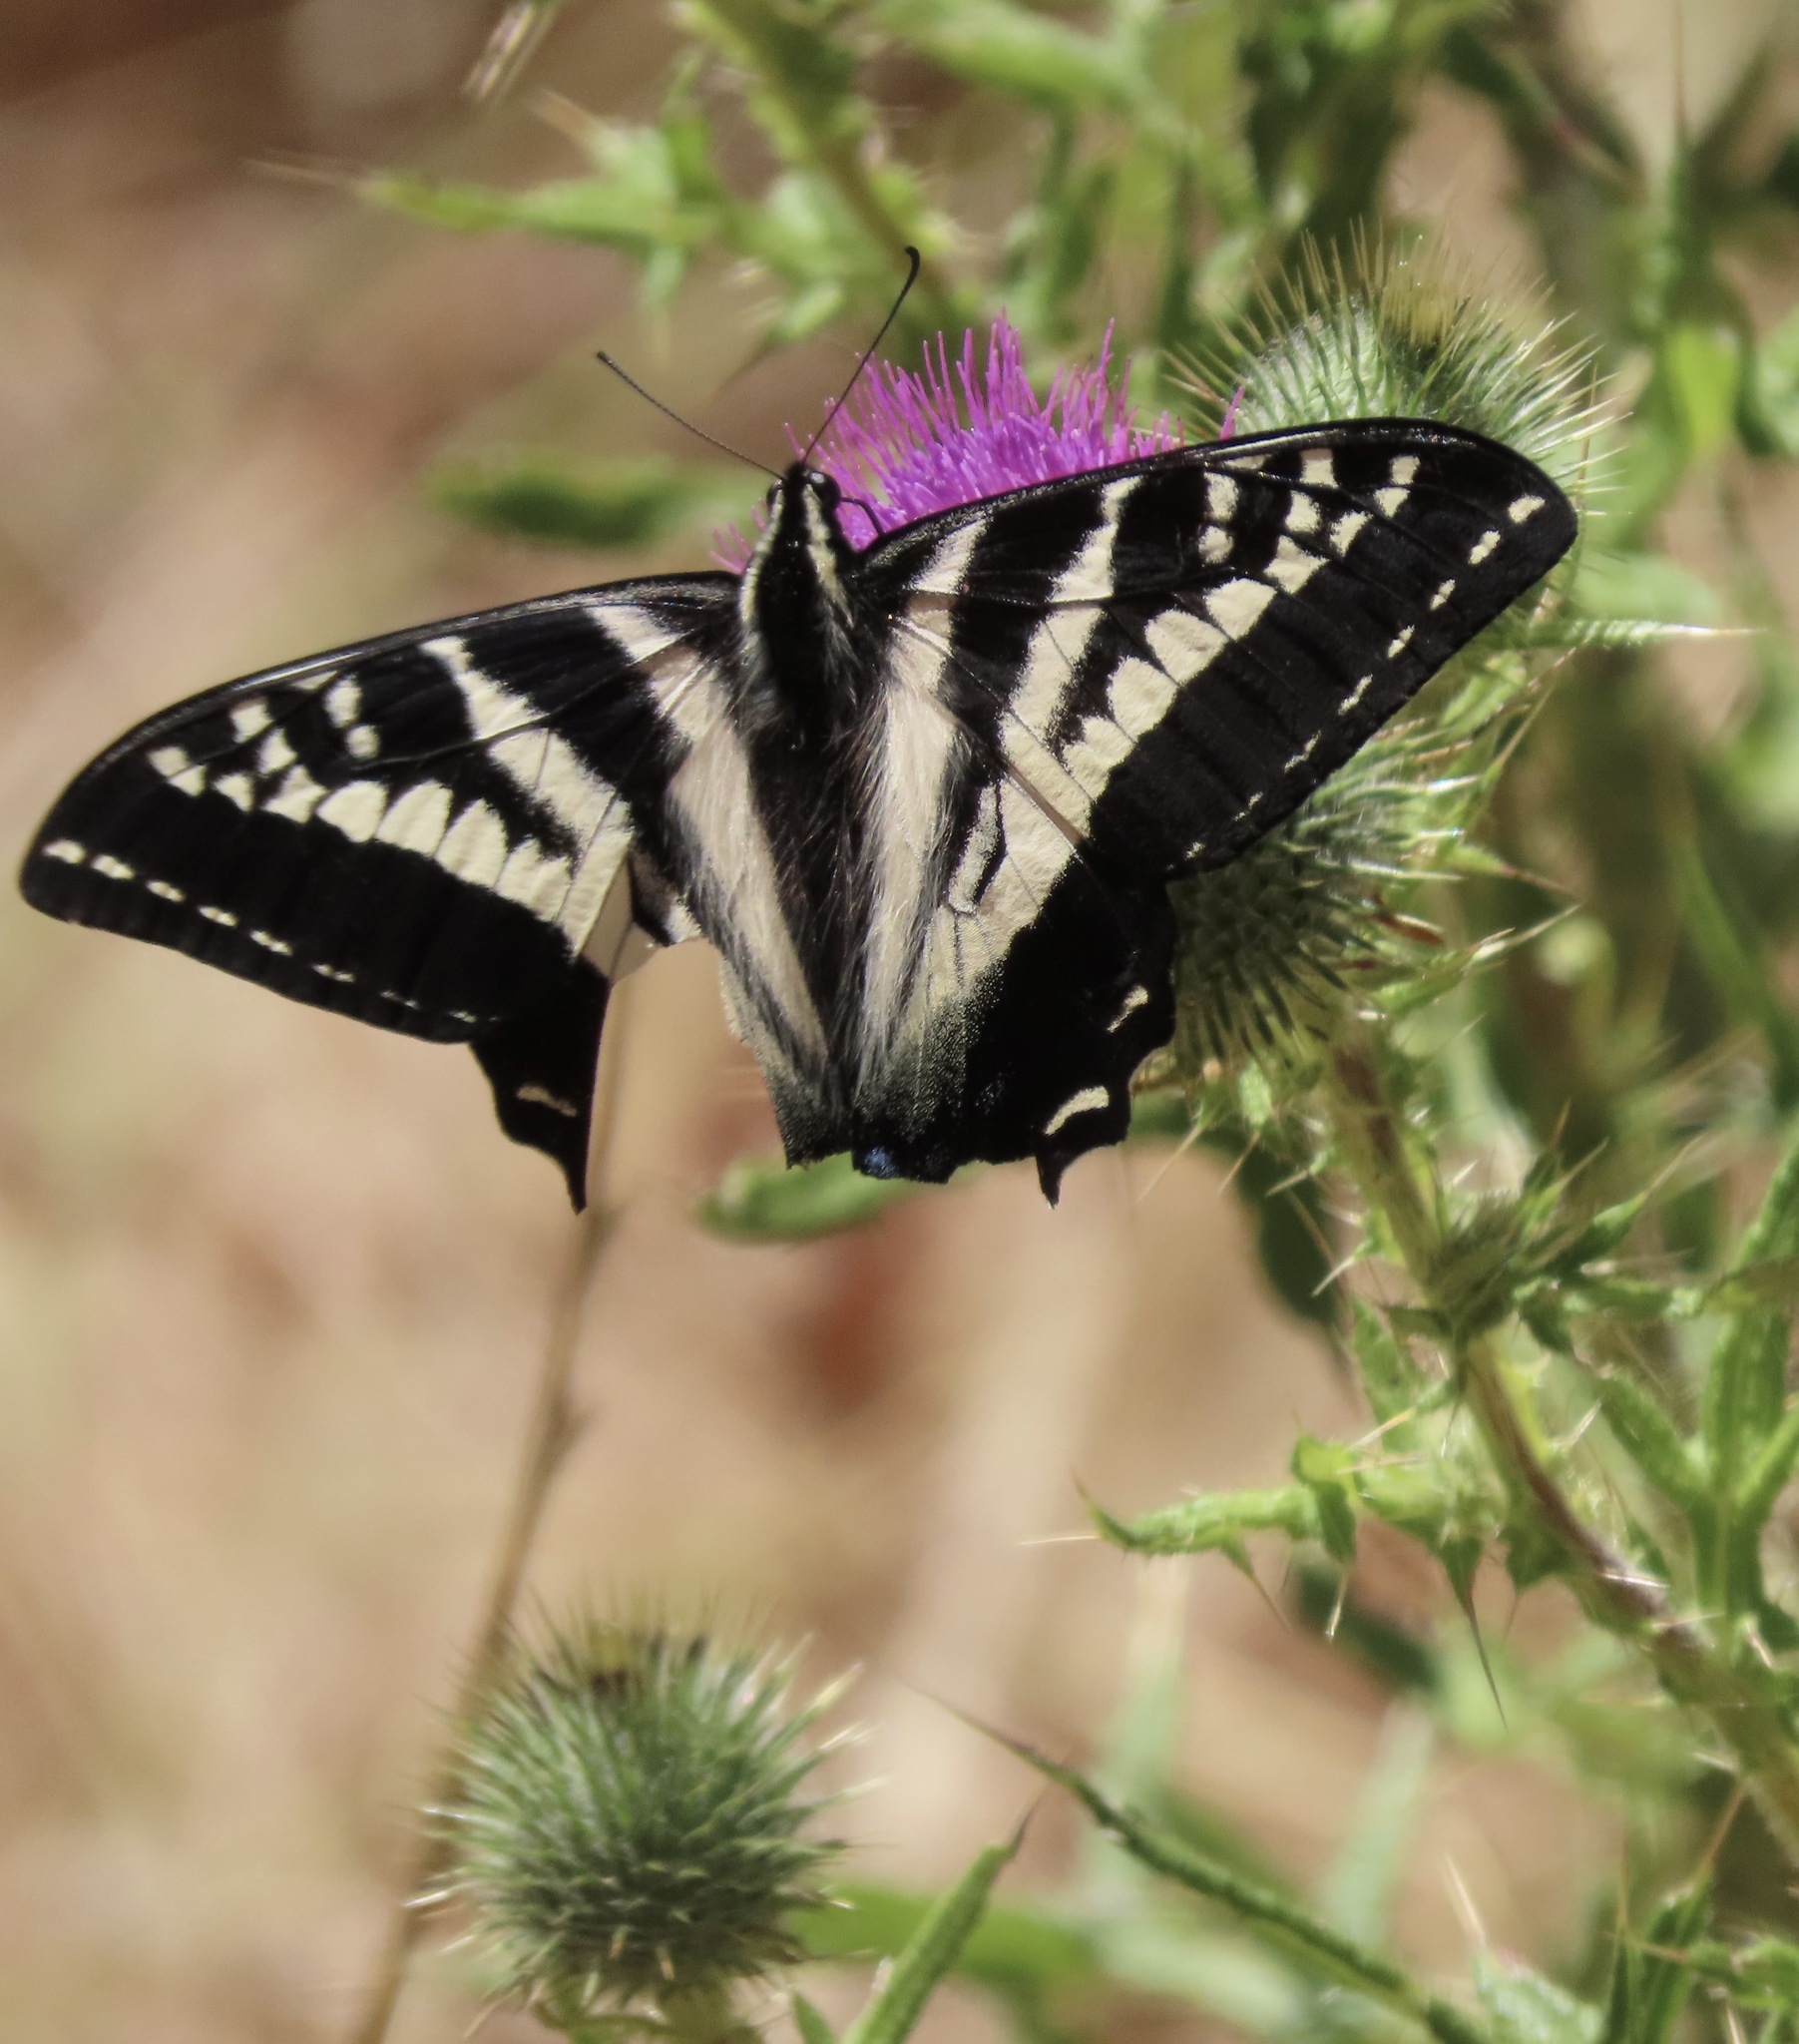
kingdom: Animalia
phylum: Arthropoda
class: Insecta
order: Lepidoptera
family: Papilionidae
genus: Papilio
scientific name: Papilio eurymedon
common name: Pale tiger swallowtail
